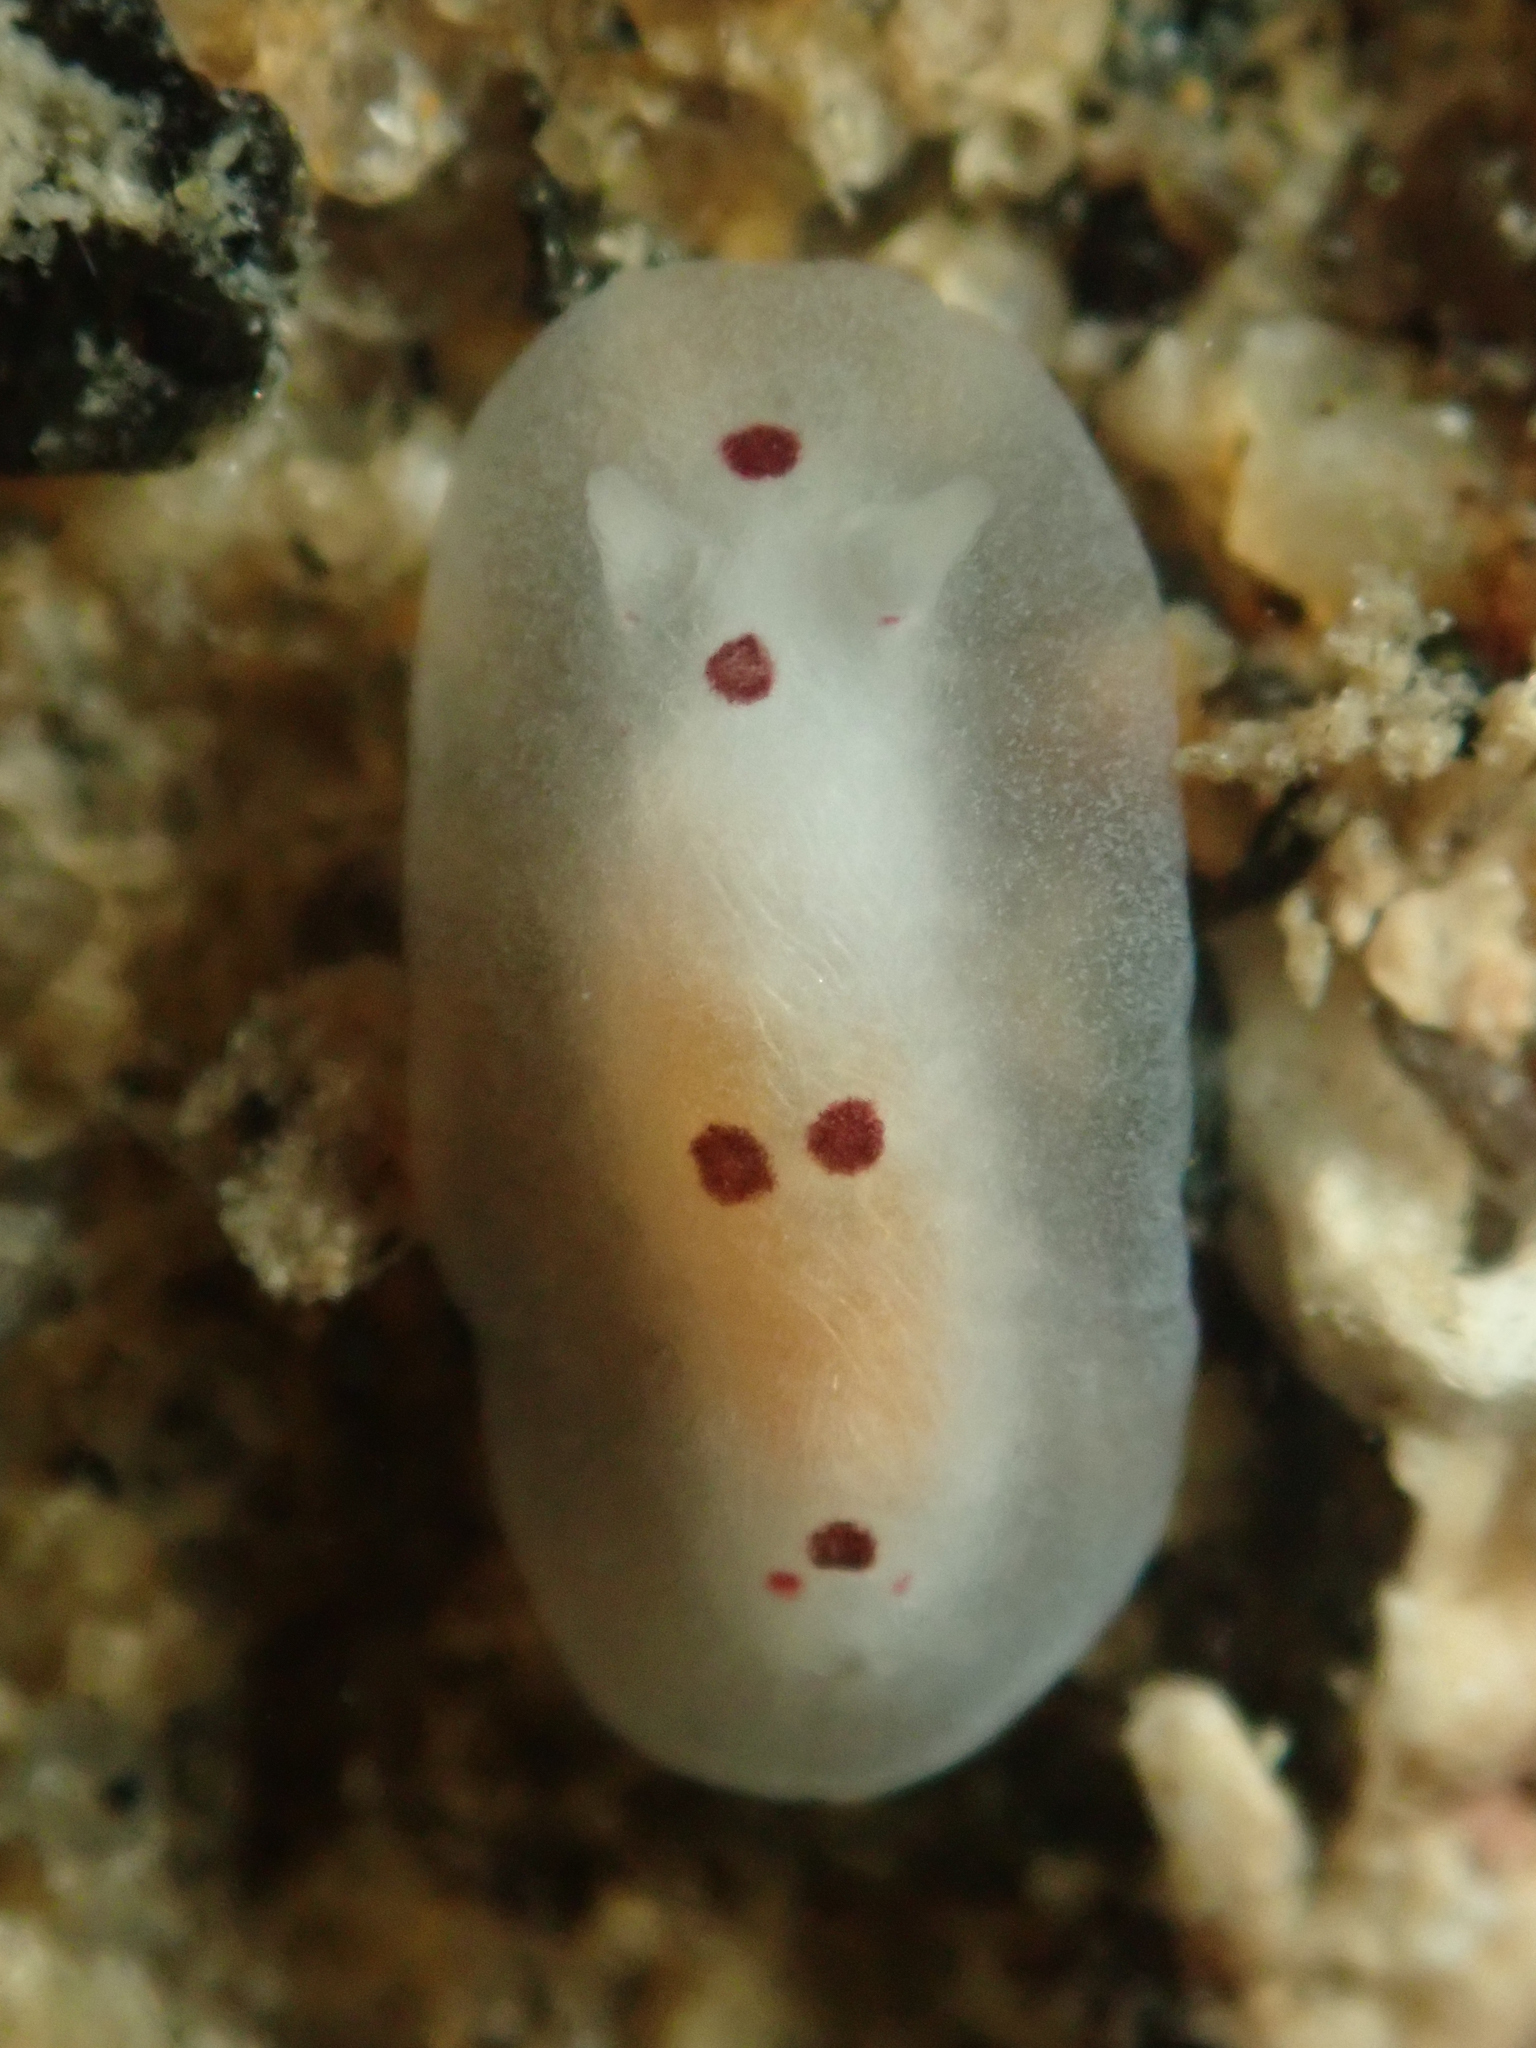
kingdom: Animalia
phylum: Mollusca
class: Gastropoda
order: Nudibranchia
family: Dendrodorididae
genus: Dendrodoris
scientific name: Dendrodoris nigromaculata
